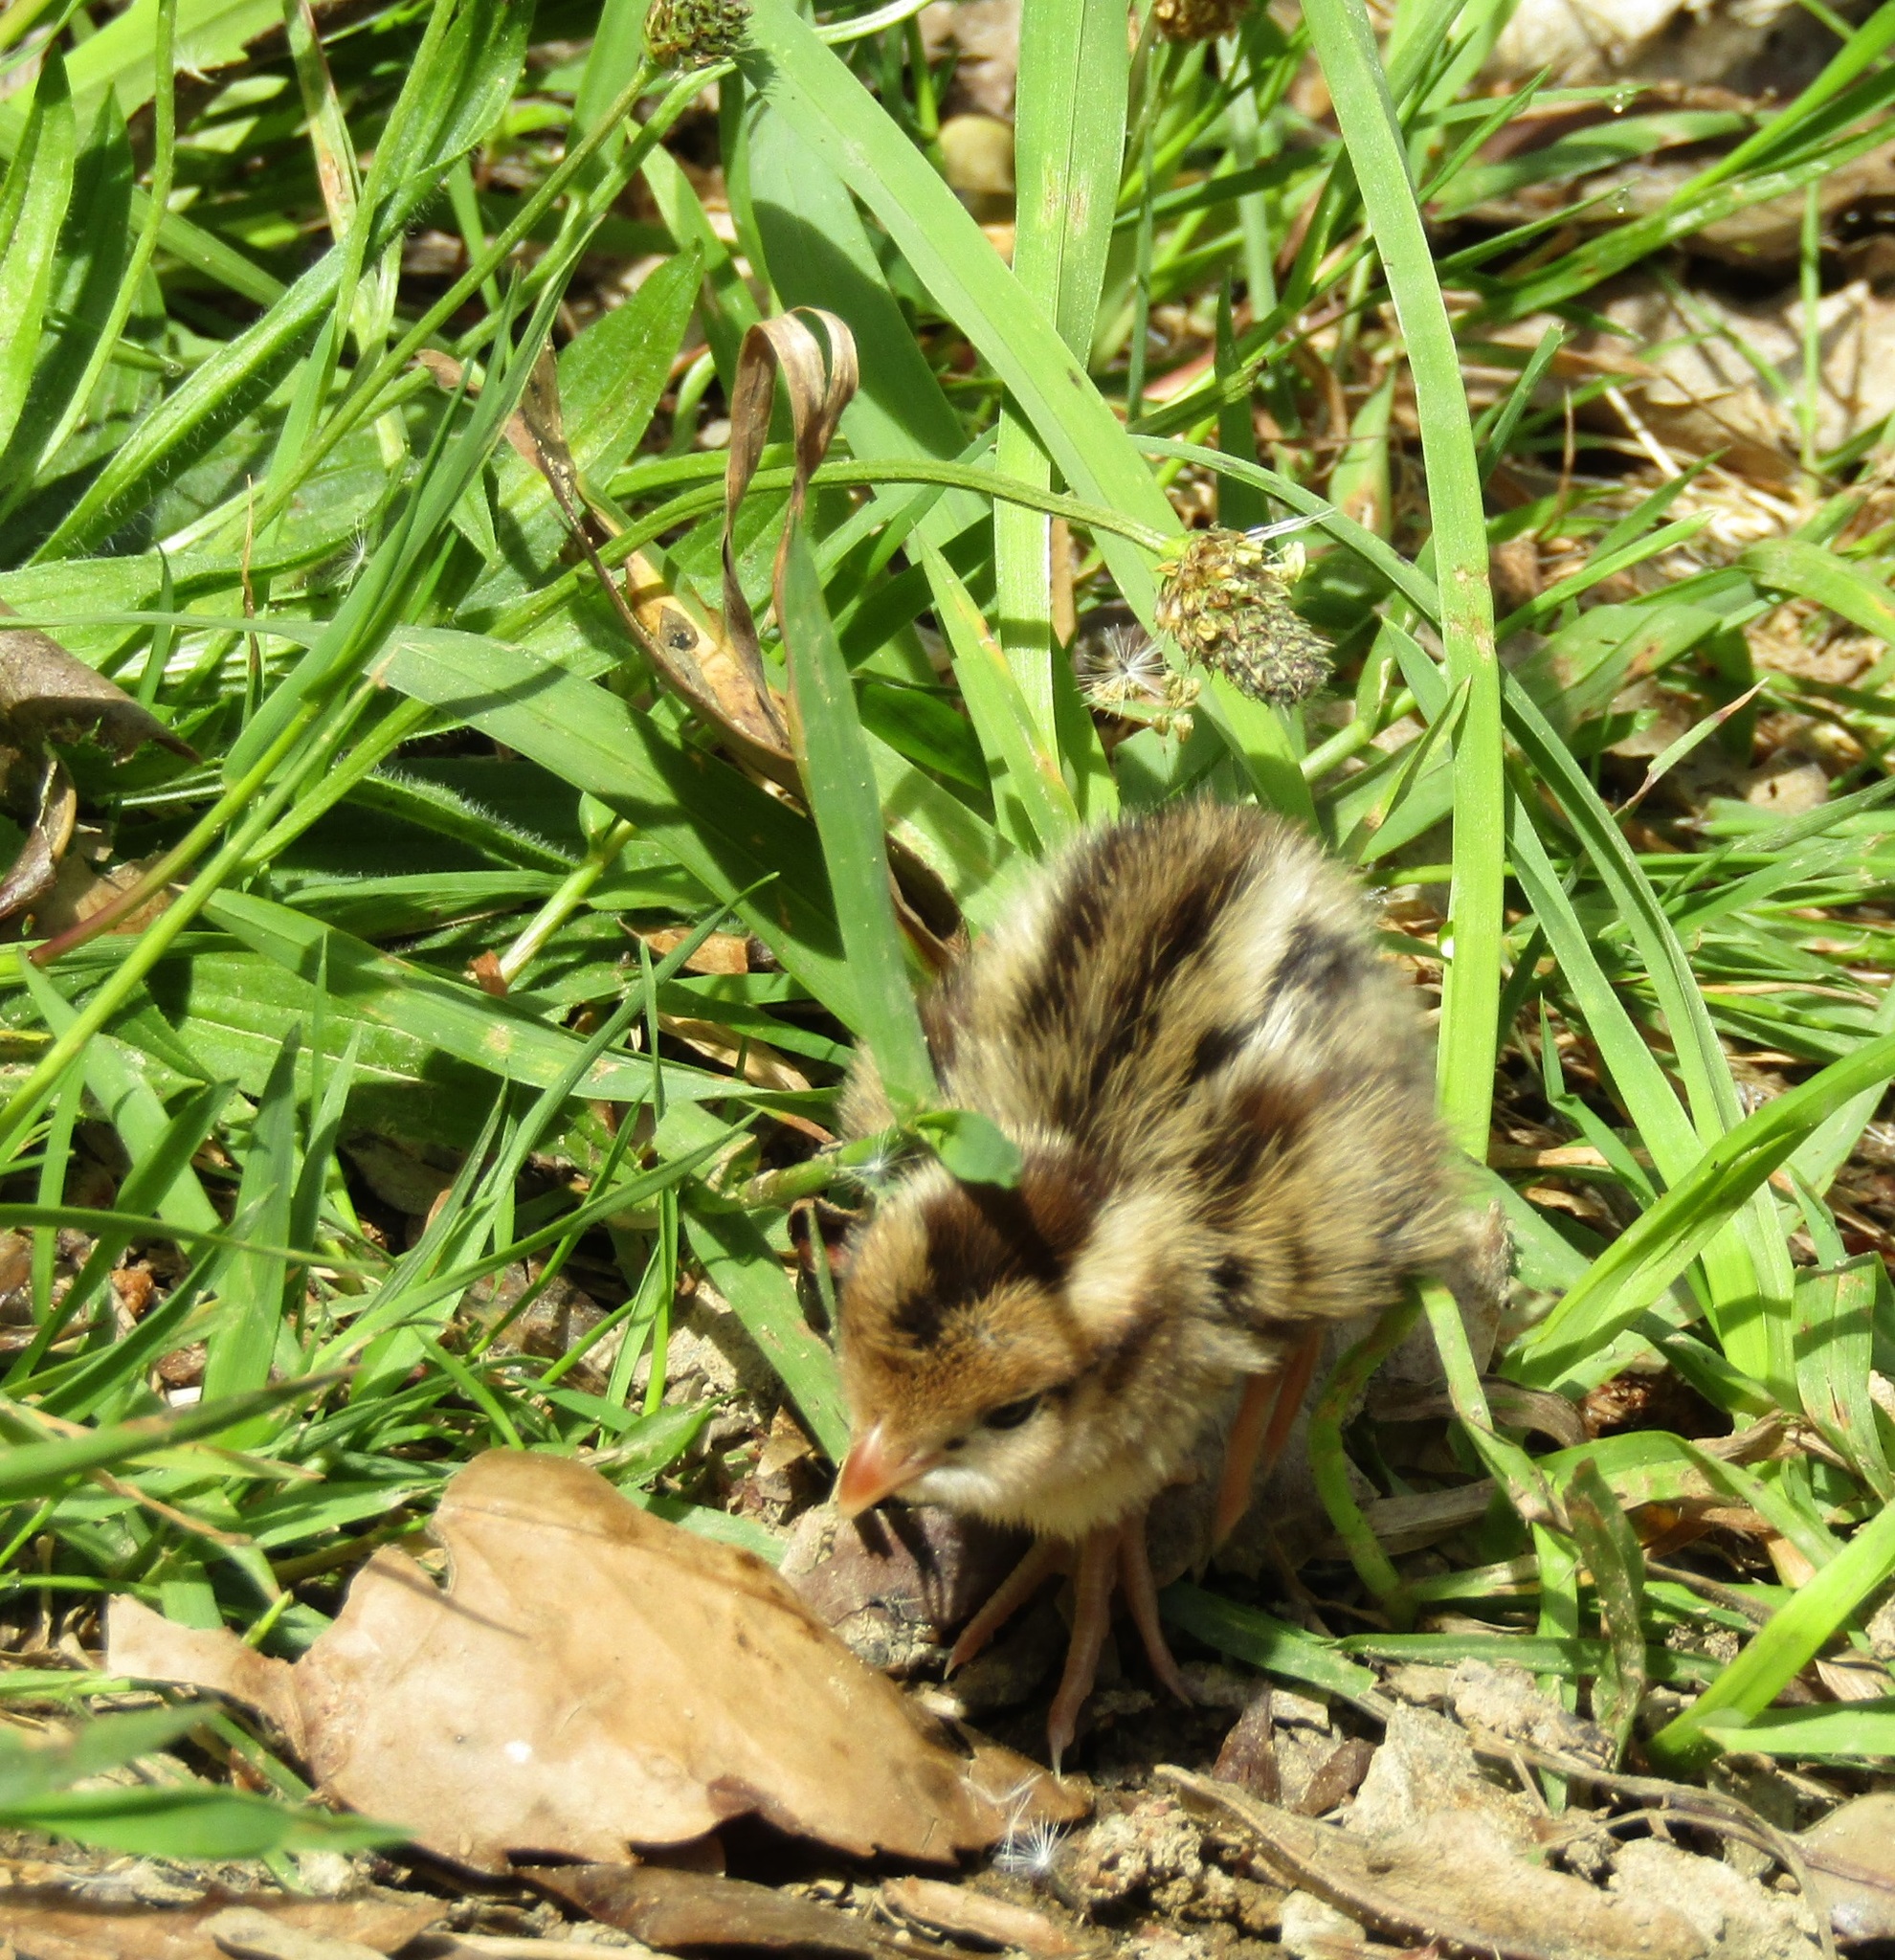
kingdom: Animalia
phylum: Chordata
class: Aves
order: Galliformes
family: Odontophoridae
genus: Callipepla
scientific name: Callipepla californica
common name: California quail
